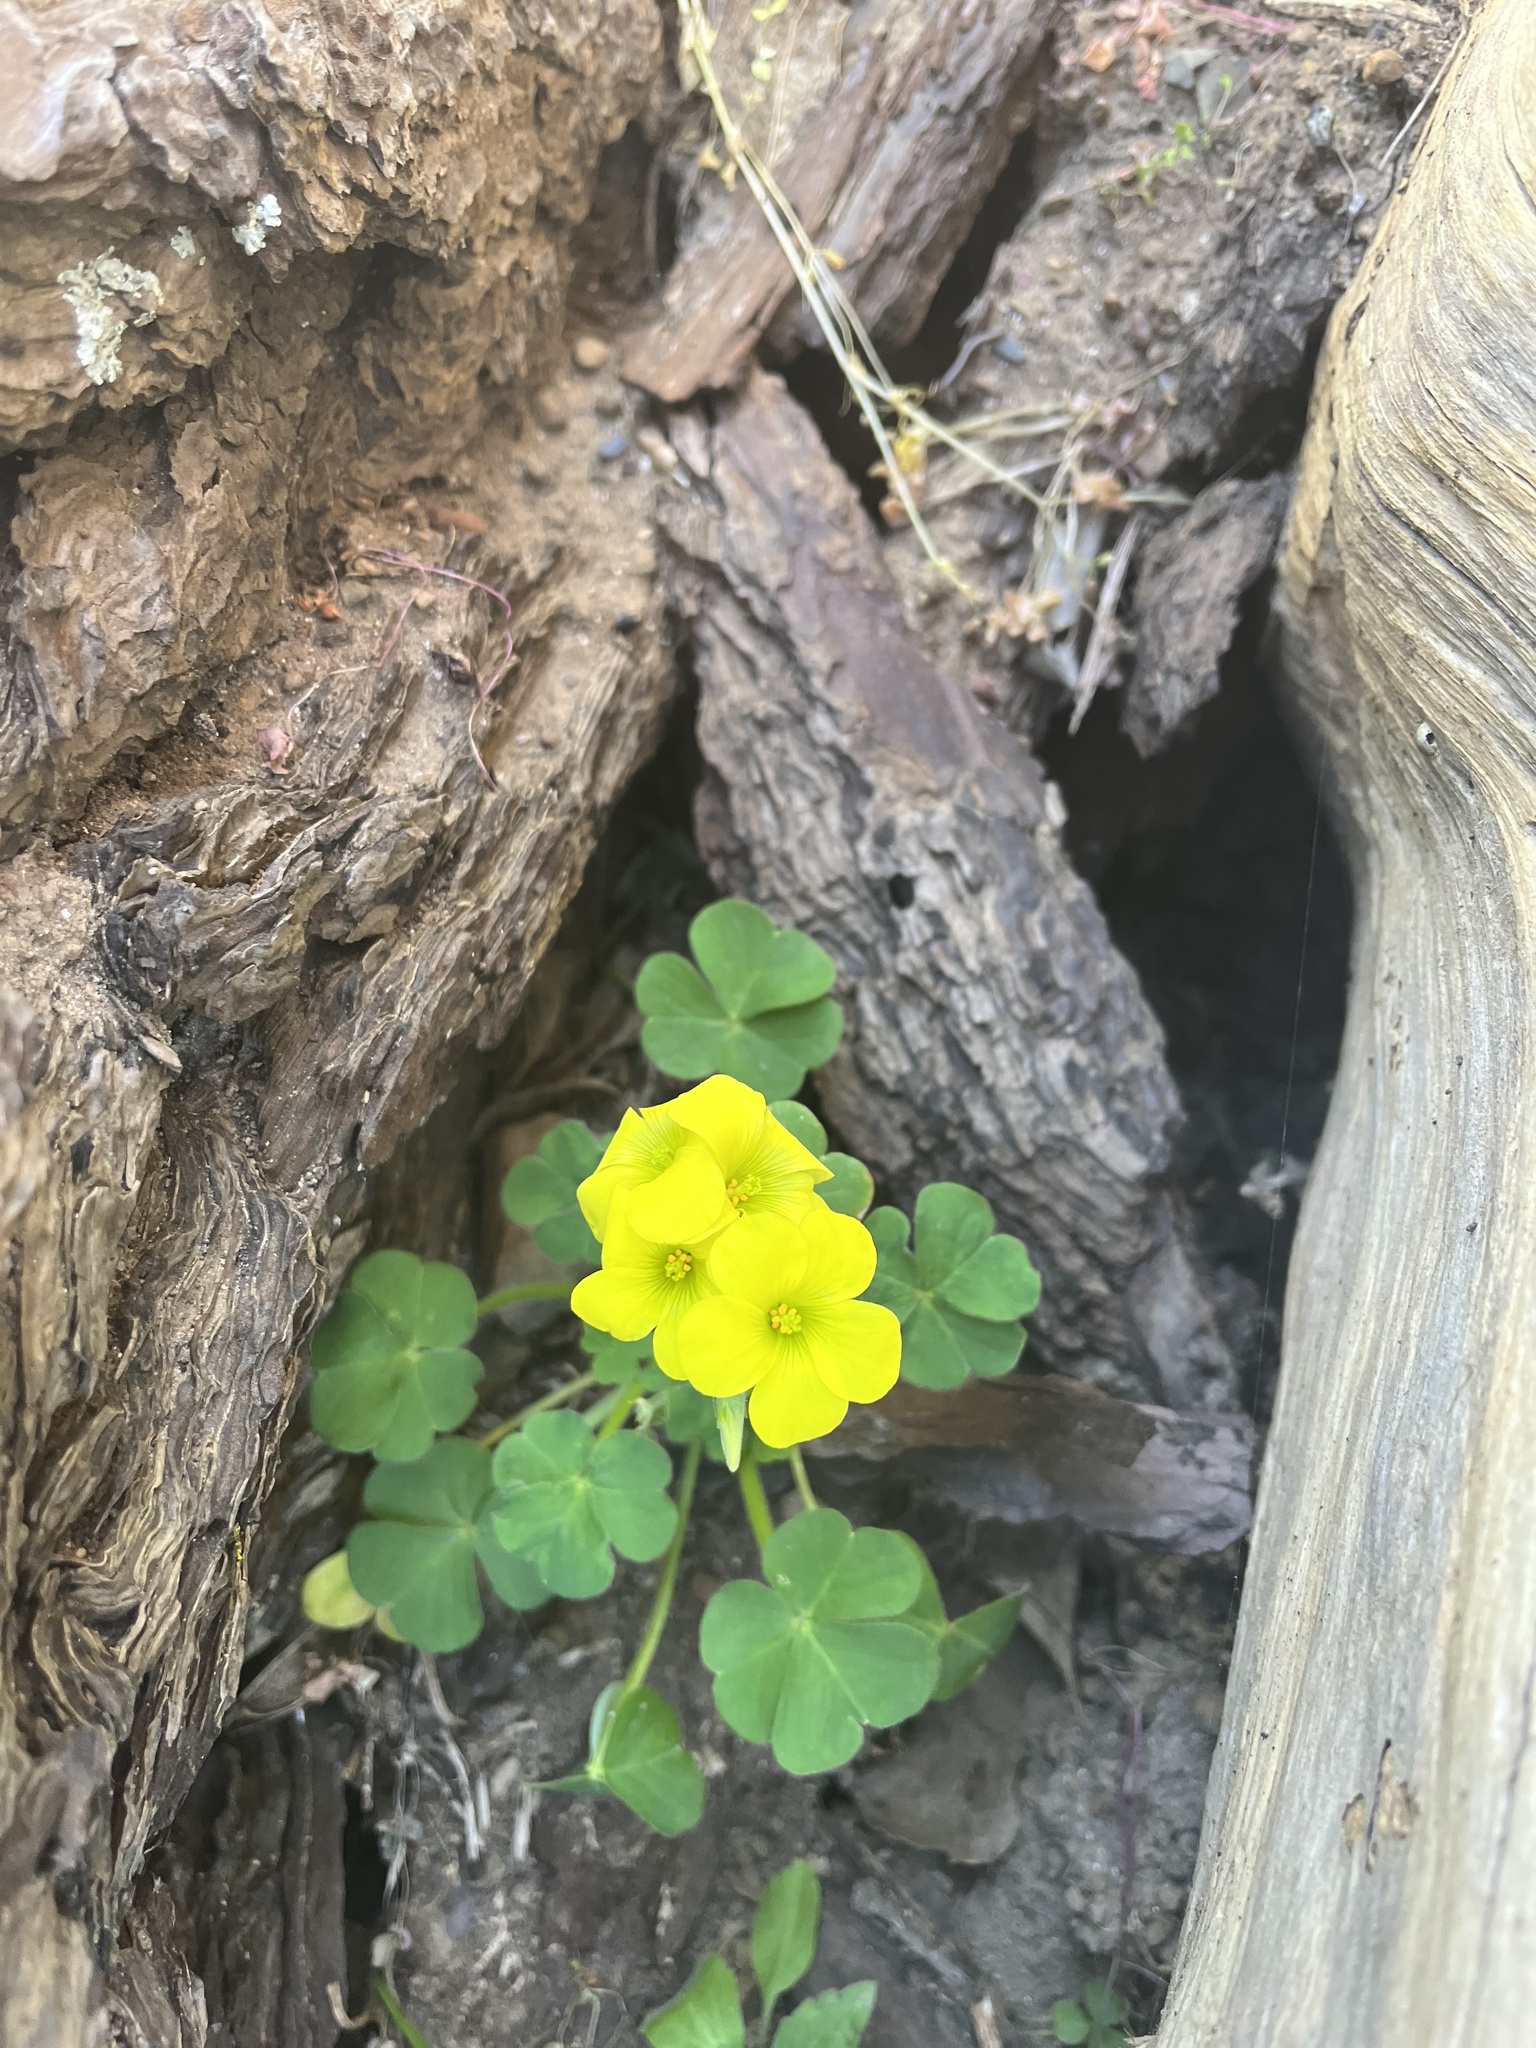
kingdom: Plantae
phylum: Tracheophyta
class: Magnoliopsida
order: Oxalidales
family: Oxalidaceae
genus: Oxalis
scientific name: Oxalis compressa
